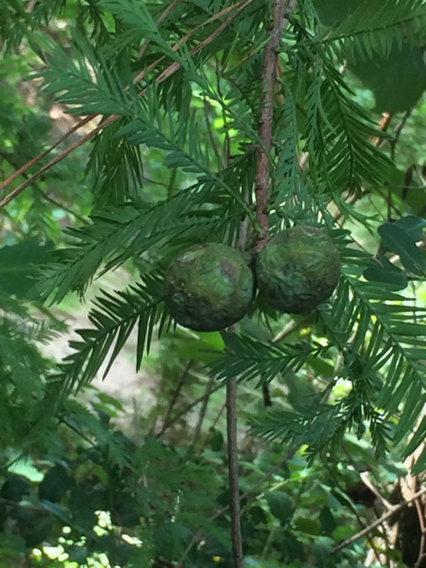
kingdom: Plantae
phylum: Tracheophyta
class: Pinopsida
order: Pinales
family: Cupressaceae
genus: Taxodium
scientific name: Taxodium distichum
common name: Bald cypress
